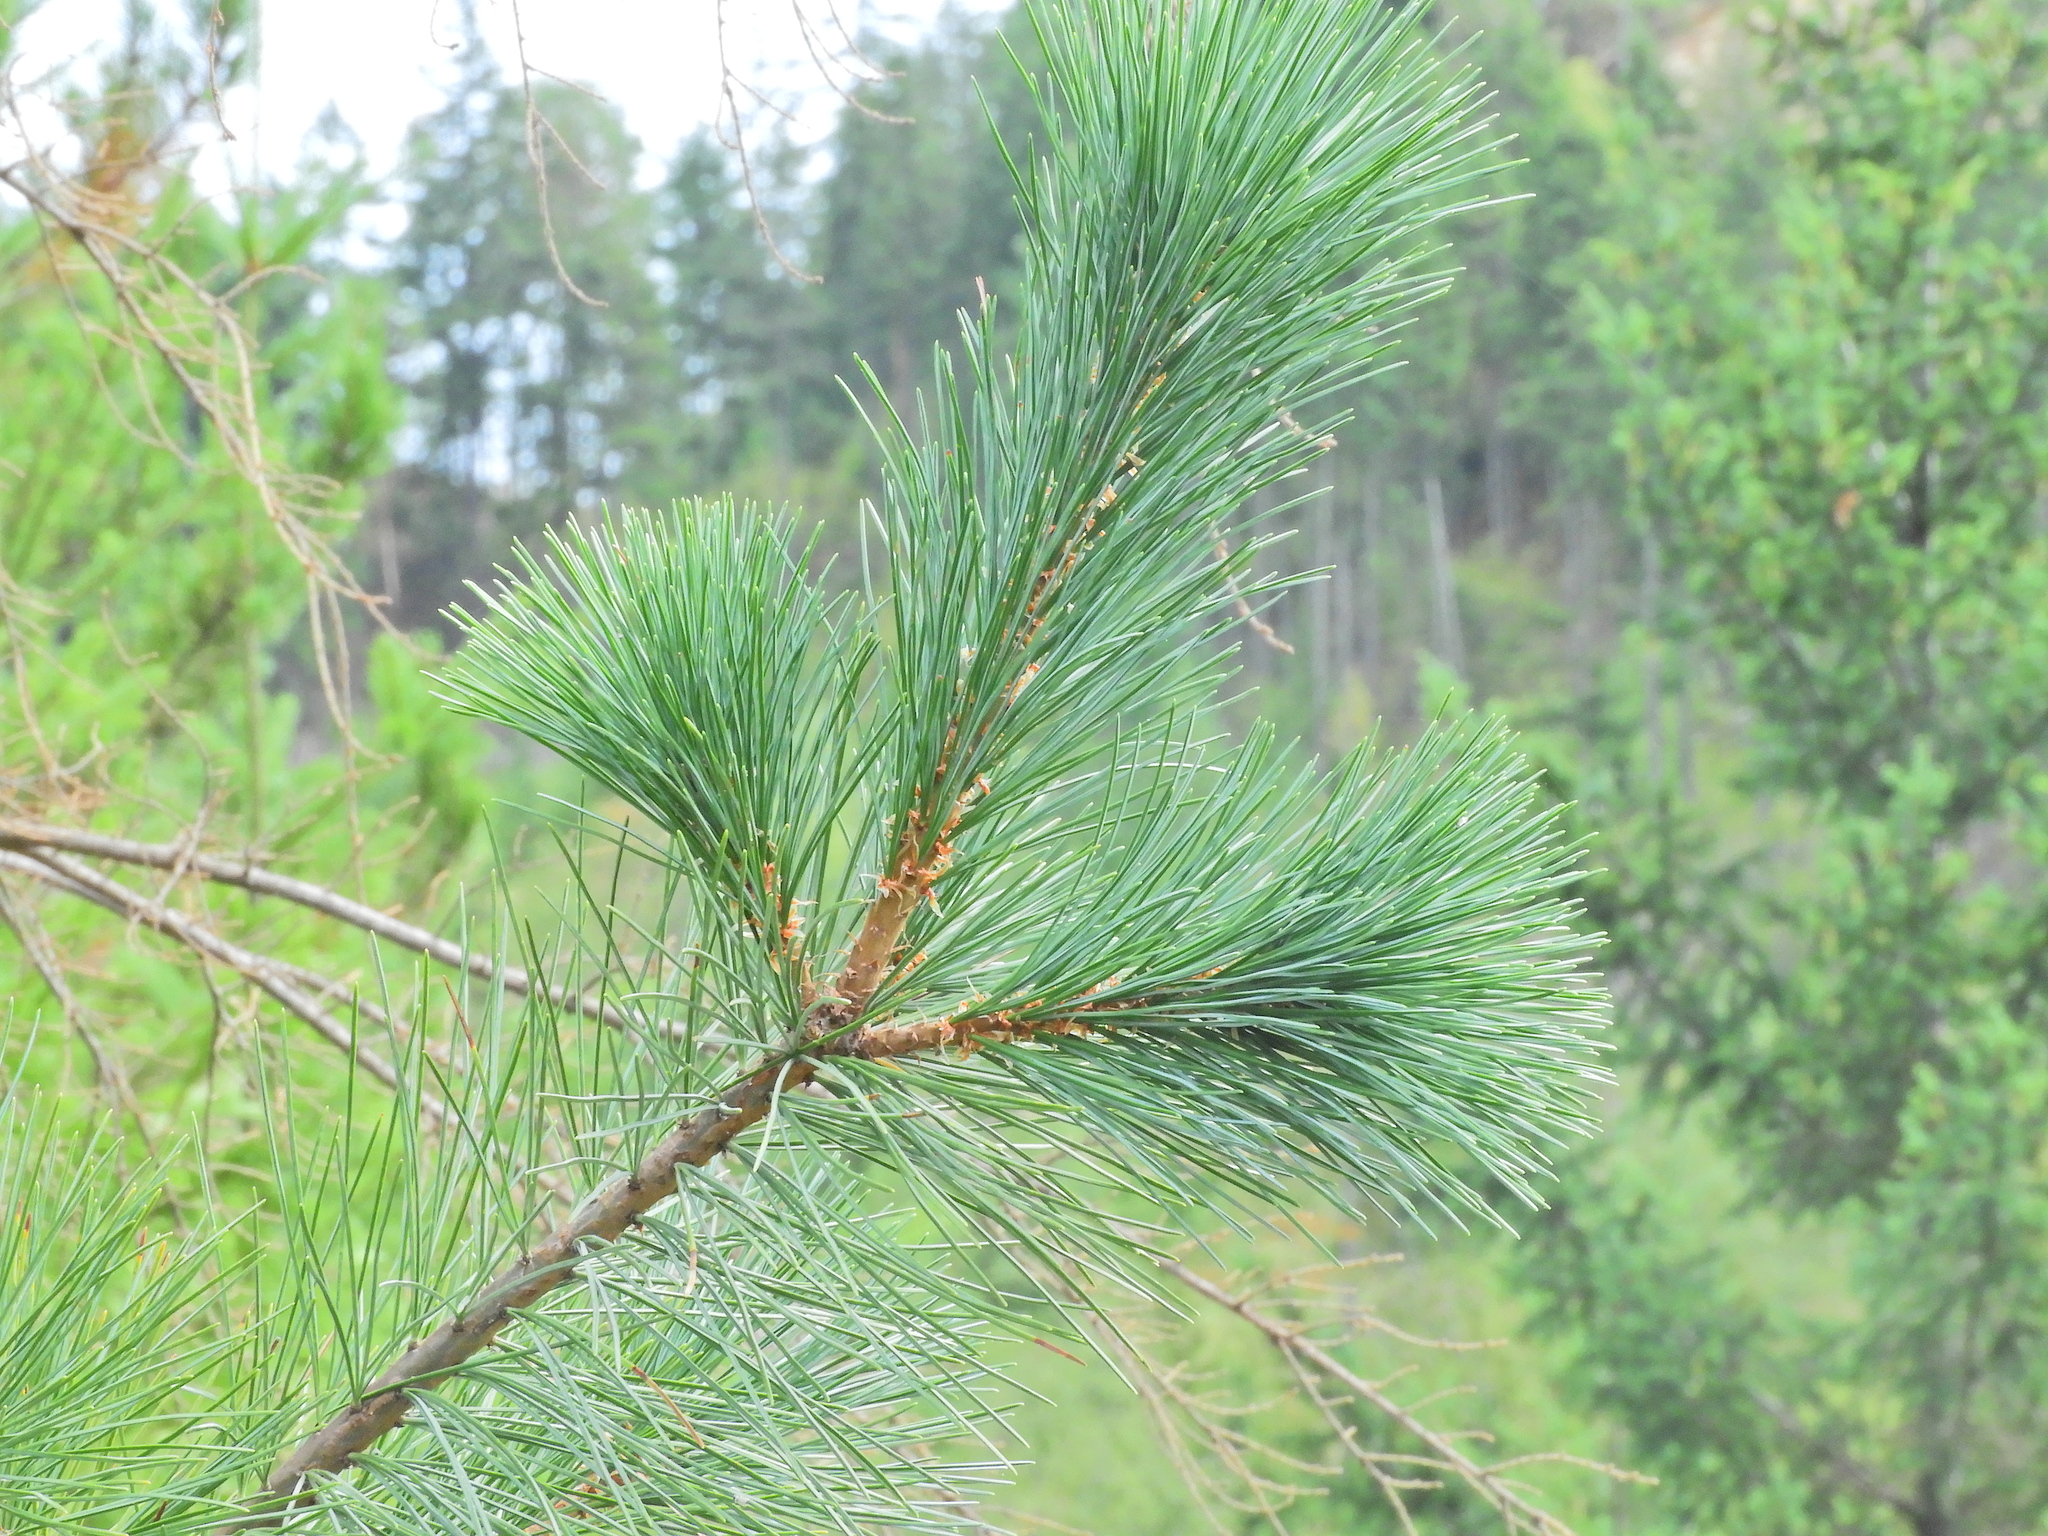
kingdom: Plantae
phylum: Tracheophyta
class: Pinopsida
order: Pinales
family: Pinaceae
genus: Pinus
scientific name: Pinus monticola
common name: Western white pine
